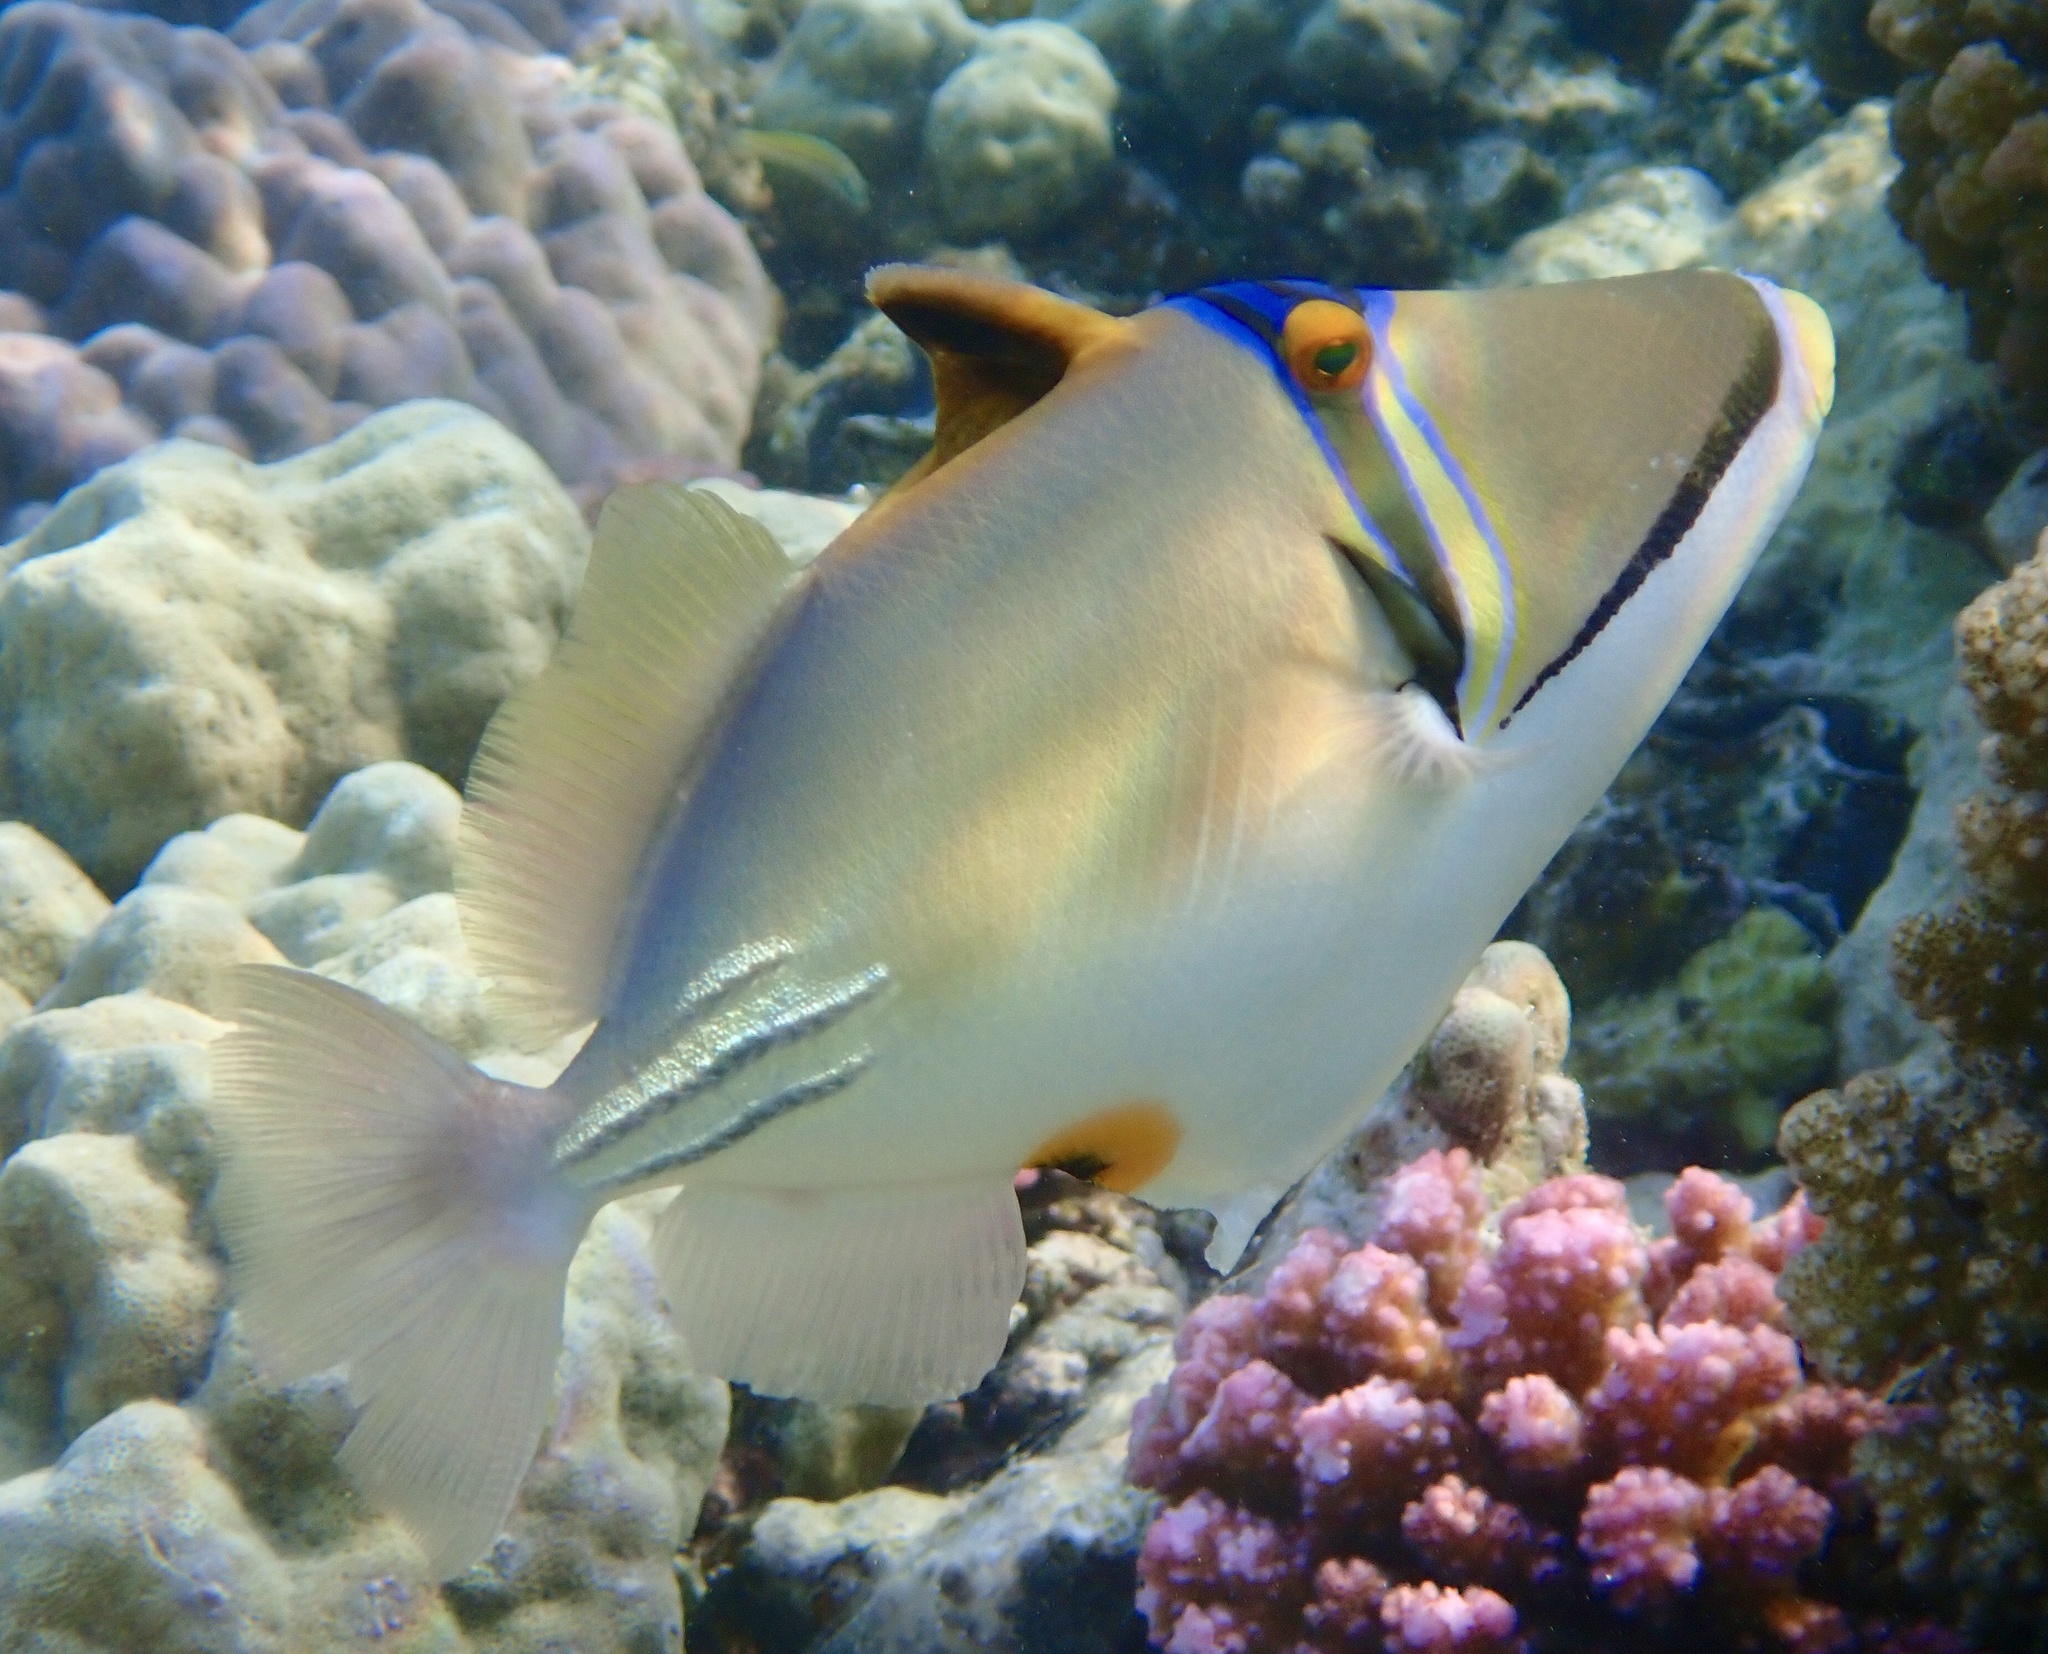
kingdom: Animalia
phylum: Chordata
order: Tetraodontiformes
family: Balistidae
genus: Rhinecanthus
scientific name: Rhinecanthus assasi
